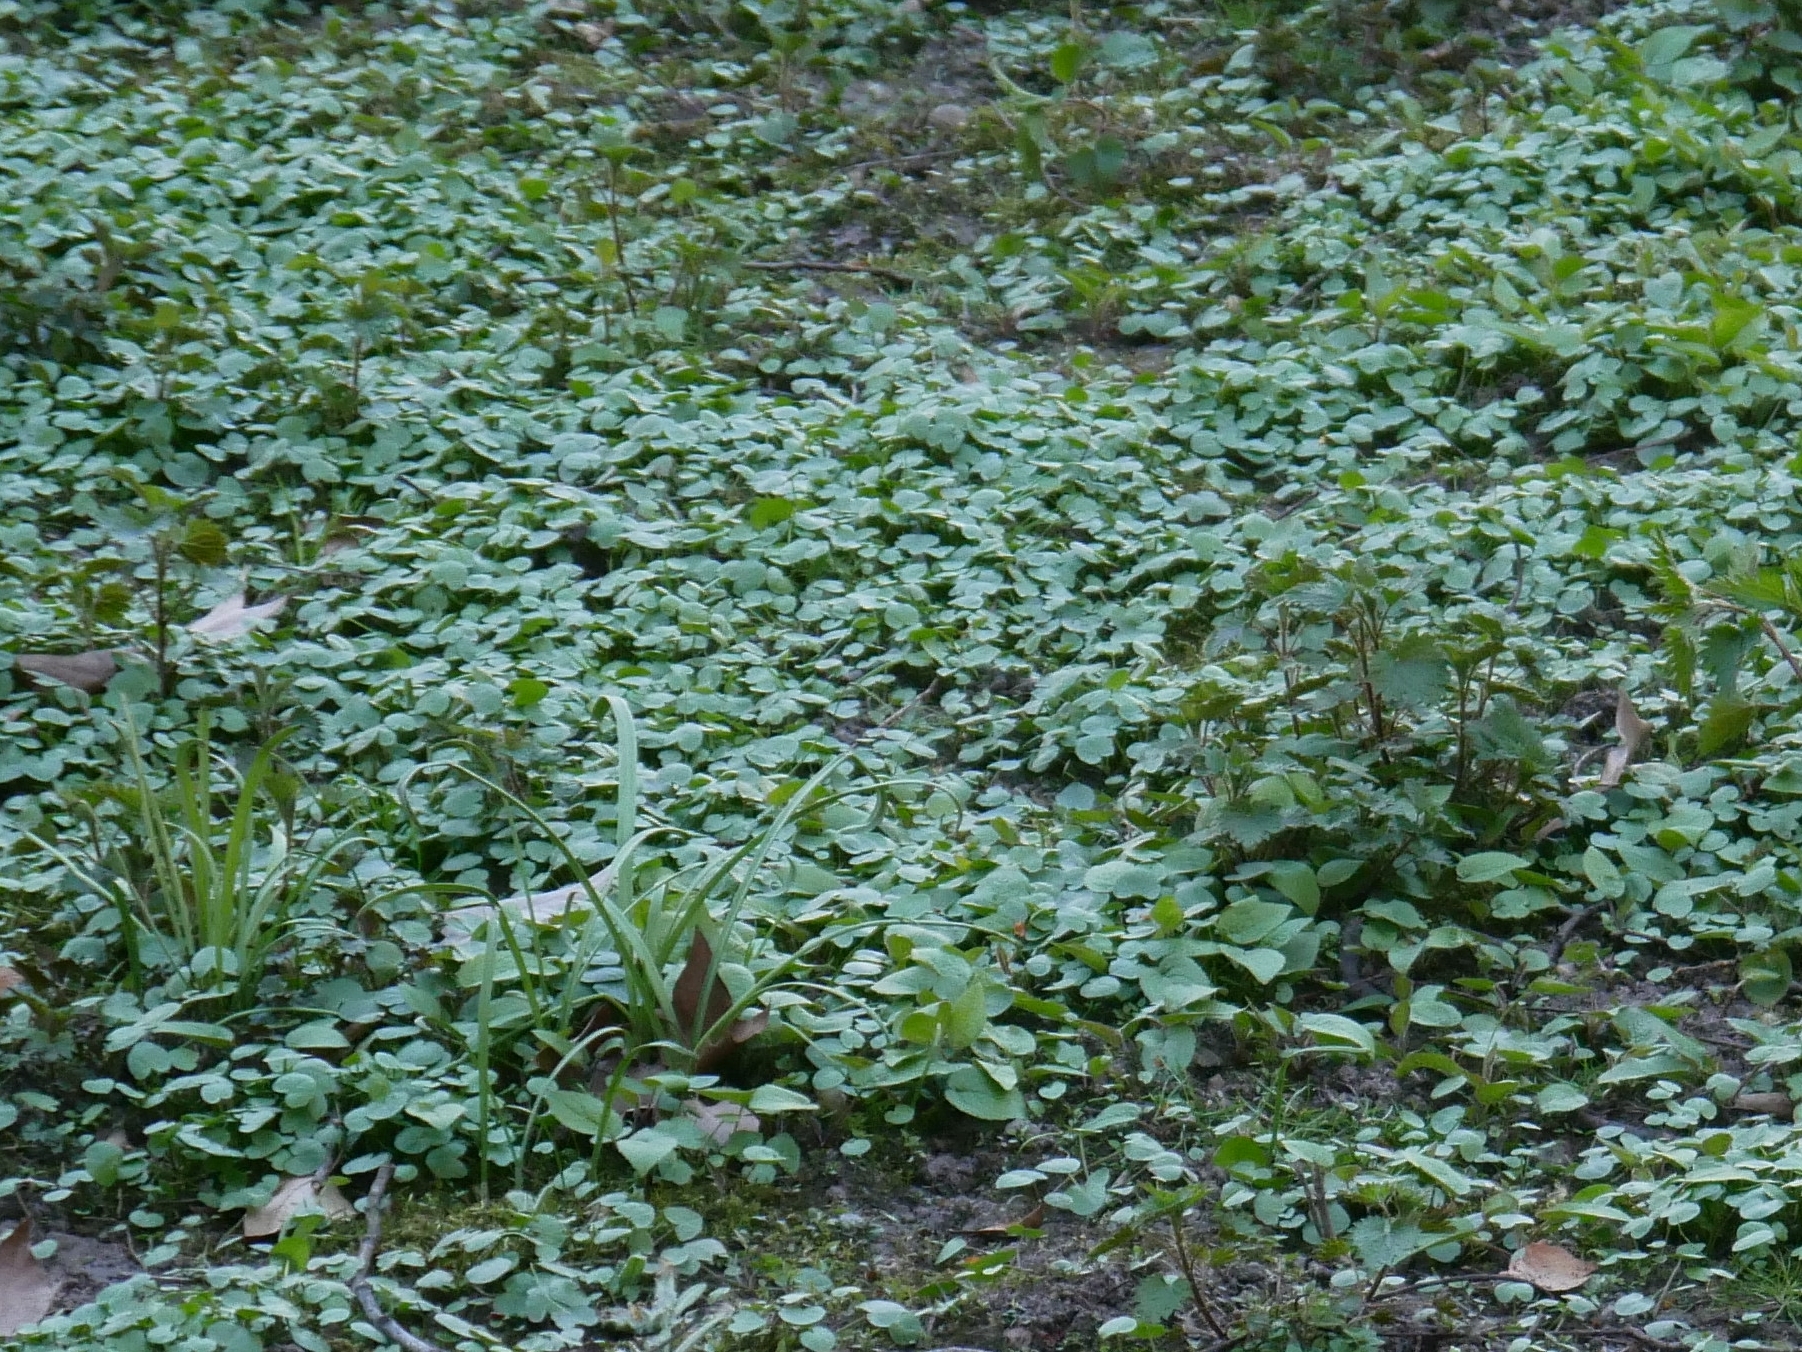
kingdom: Plantae
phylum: Tracheophyta
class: Magnoliopsida
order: Ranunculales
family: Ranunculaceae
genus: Ficaria
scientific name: Ficaria verna
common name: Lesser celandine
